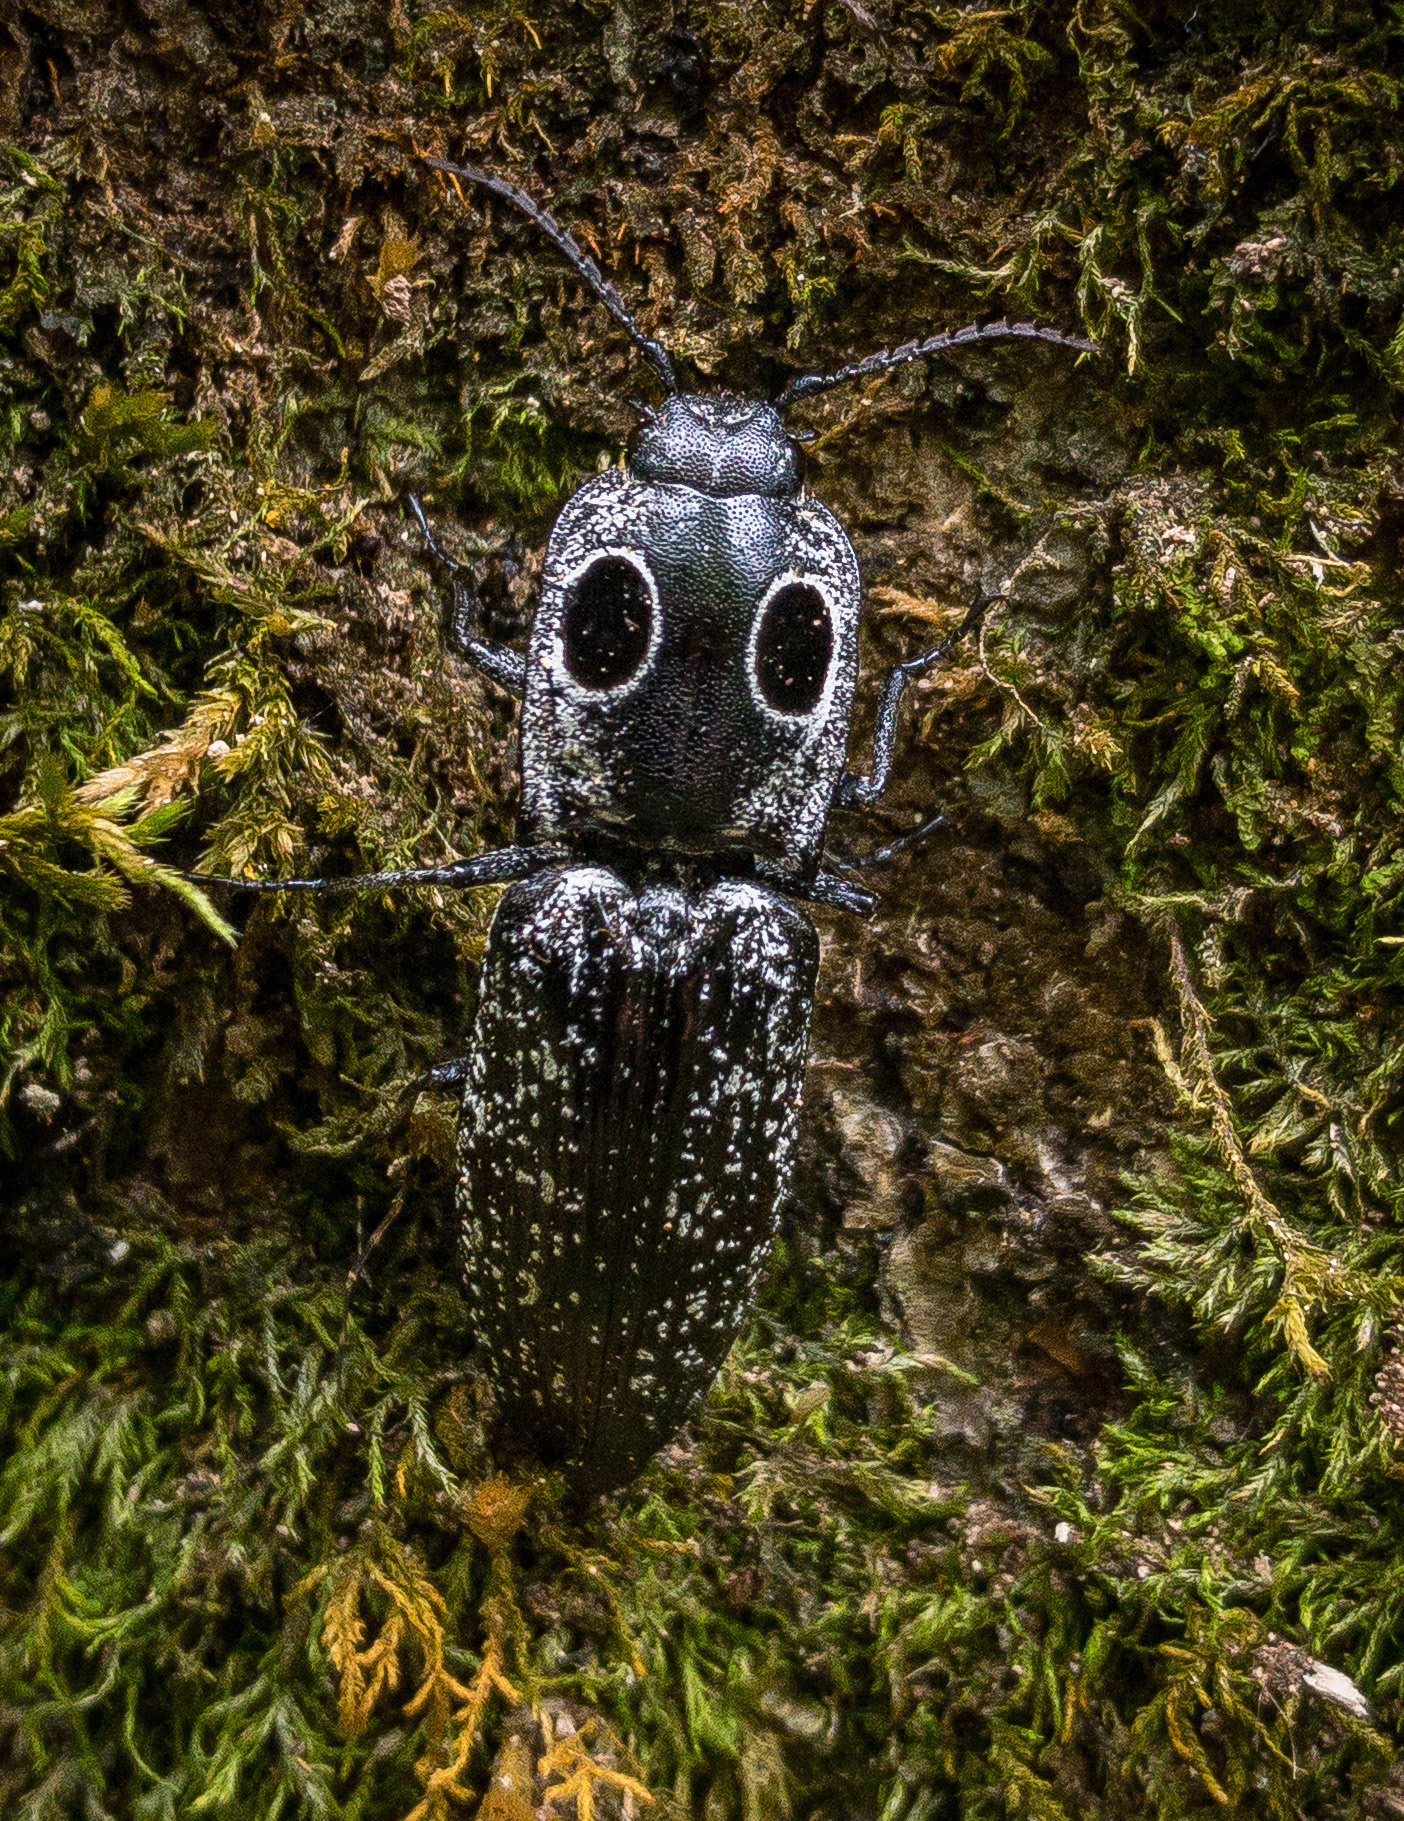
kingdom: Animalia
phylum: Arthropoda
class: Insecta
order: Coleoptera
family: Elateridae
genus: Alaus
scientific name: Alaus oculatus
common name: Eastern eyed click beetle
